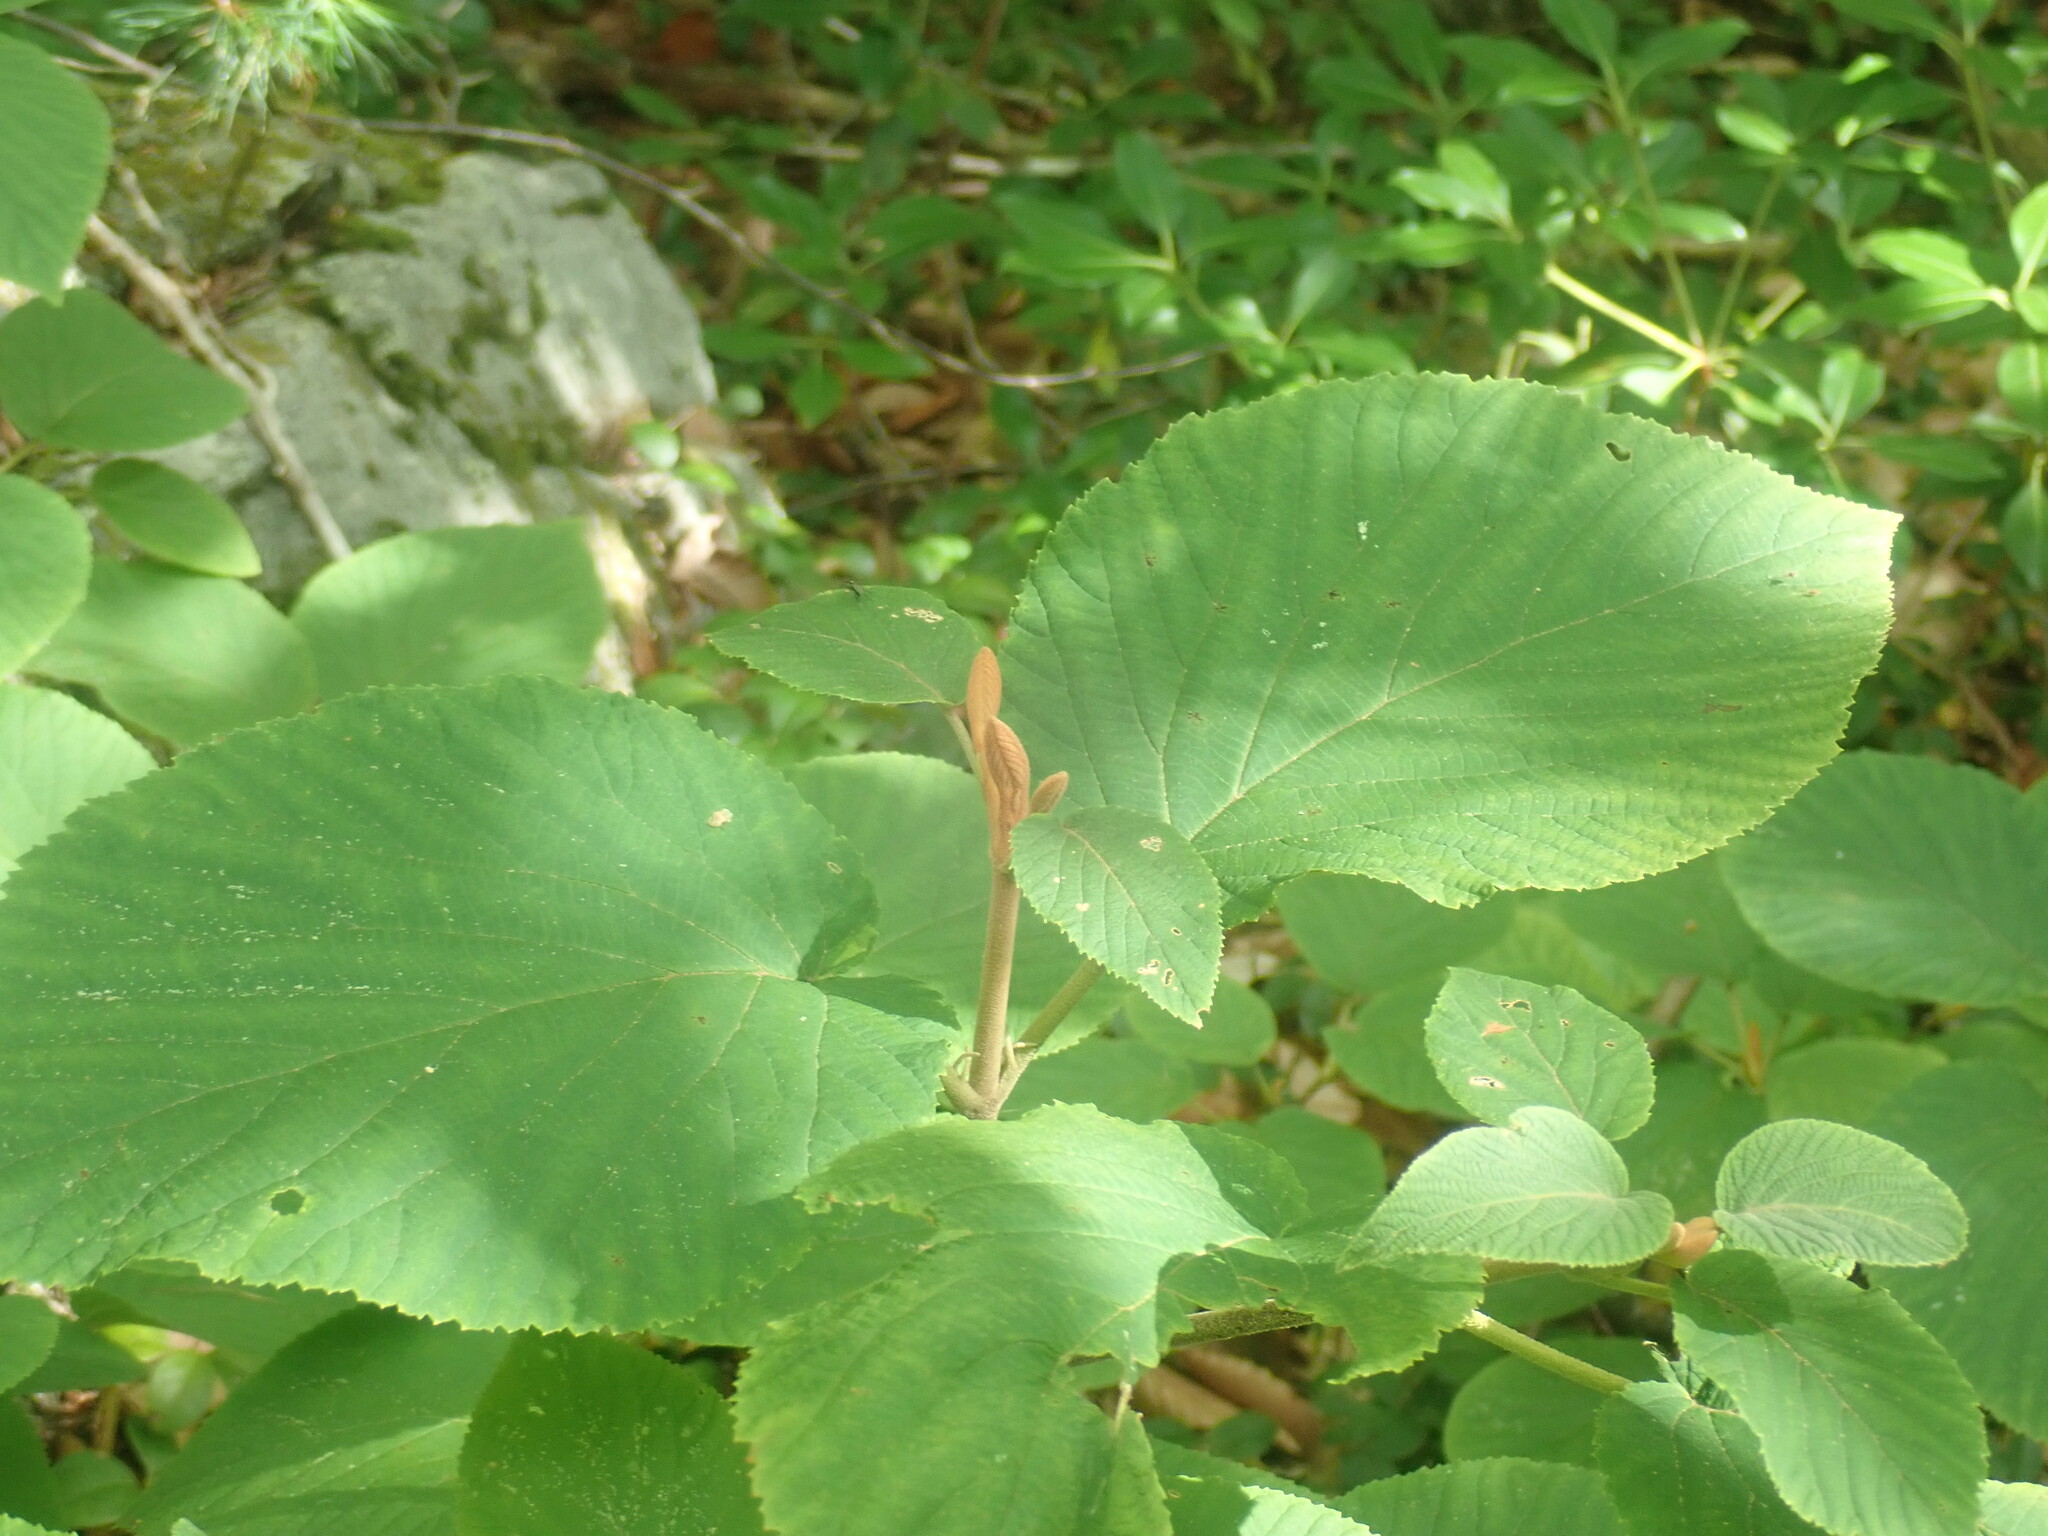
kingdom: Plantae
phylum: Tracheophyta
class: Magnoliopsida
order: Dipsacales
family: Viburnaceae
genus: Viburnum
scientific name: Viburnum lantanoides
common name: Hobblebush
